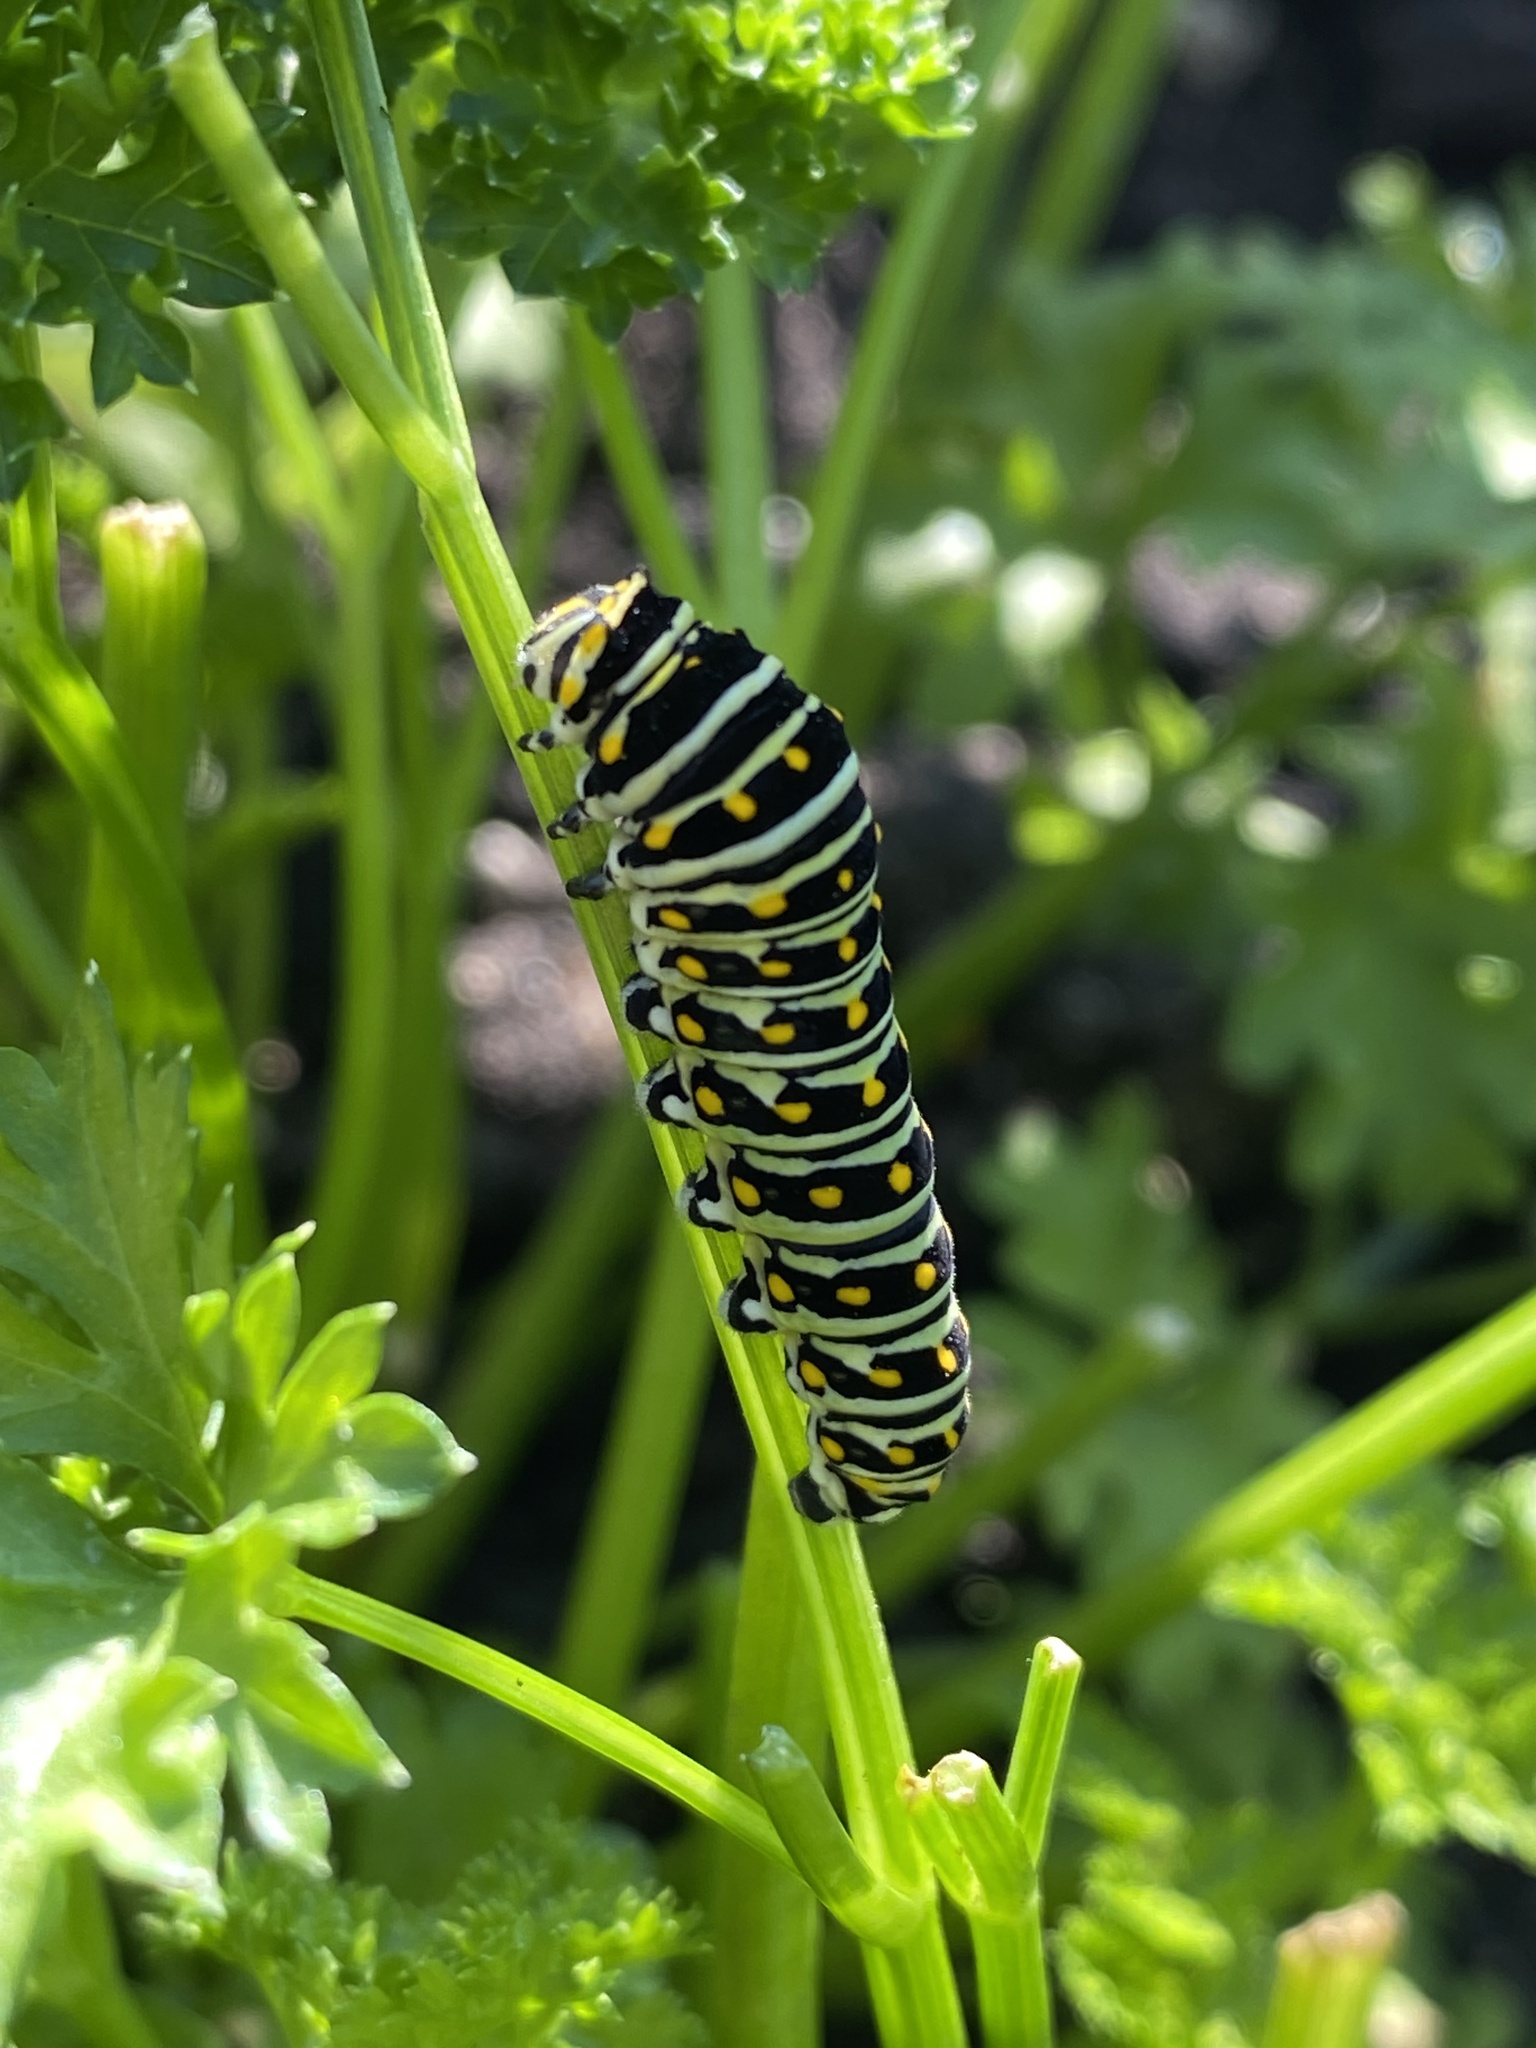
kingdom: Animalia
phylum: Arthropoda
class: Insecta
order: Lepidoptera
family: Papilionidae
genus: Papilio
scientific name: Papilio polyxenes
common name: Black swallowtail
